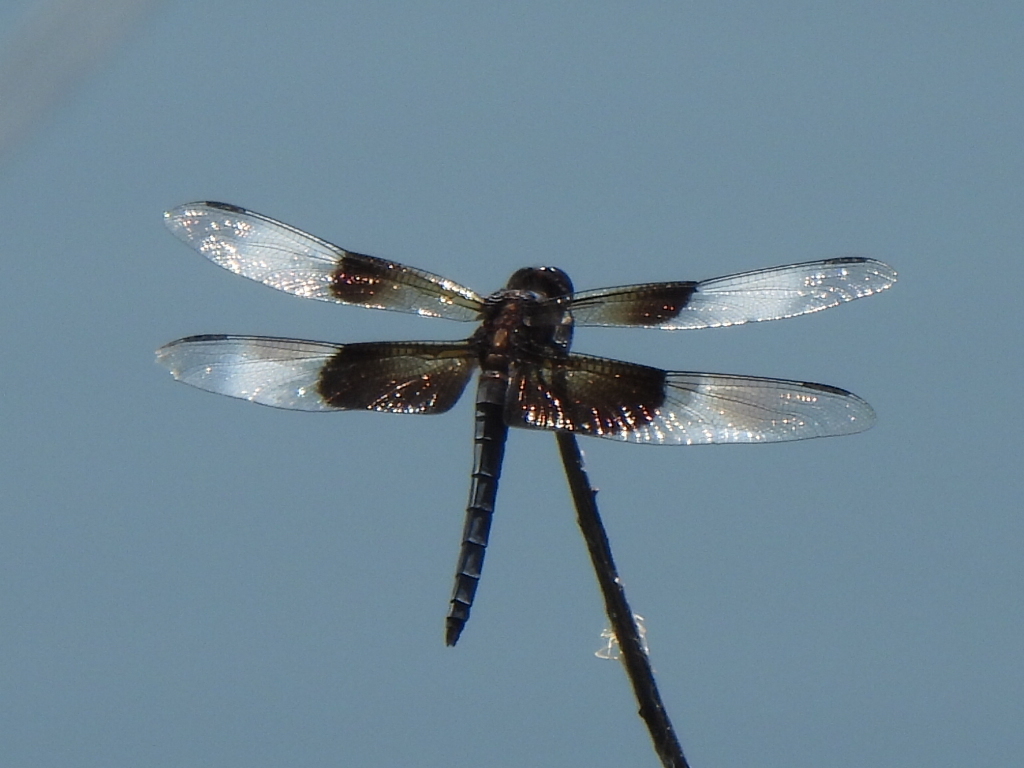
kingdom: Animalia
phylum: Arthropoda
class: Insecta
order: Odonata
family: Libellulidae
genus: Libellula
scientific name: Libellula luctuosa
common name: Widow skimmer
